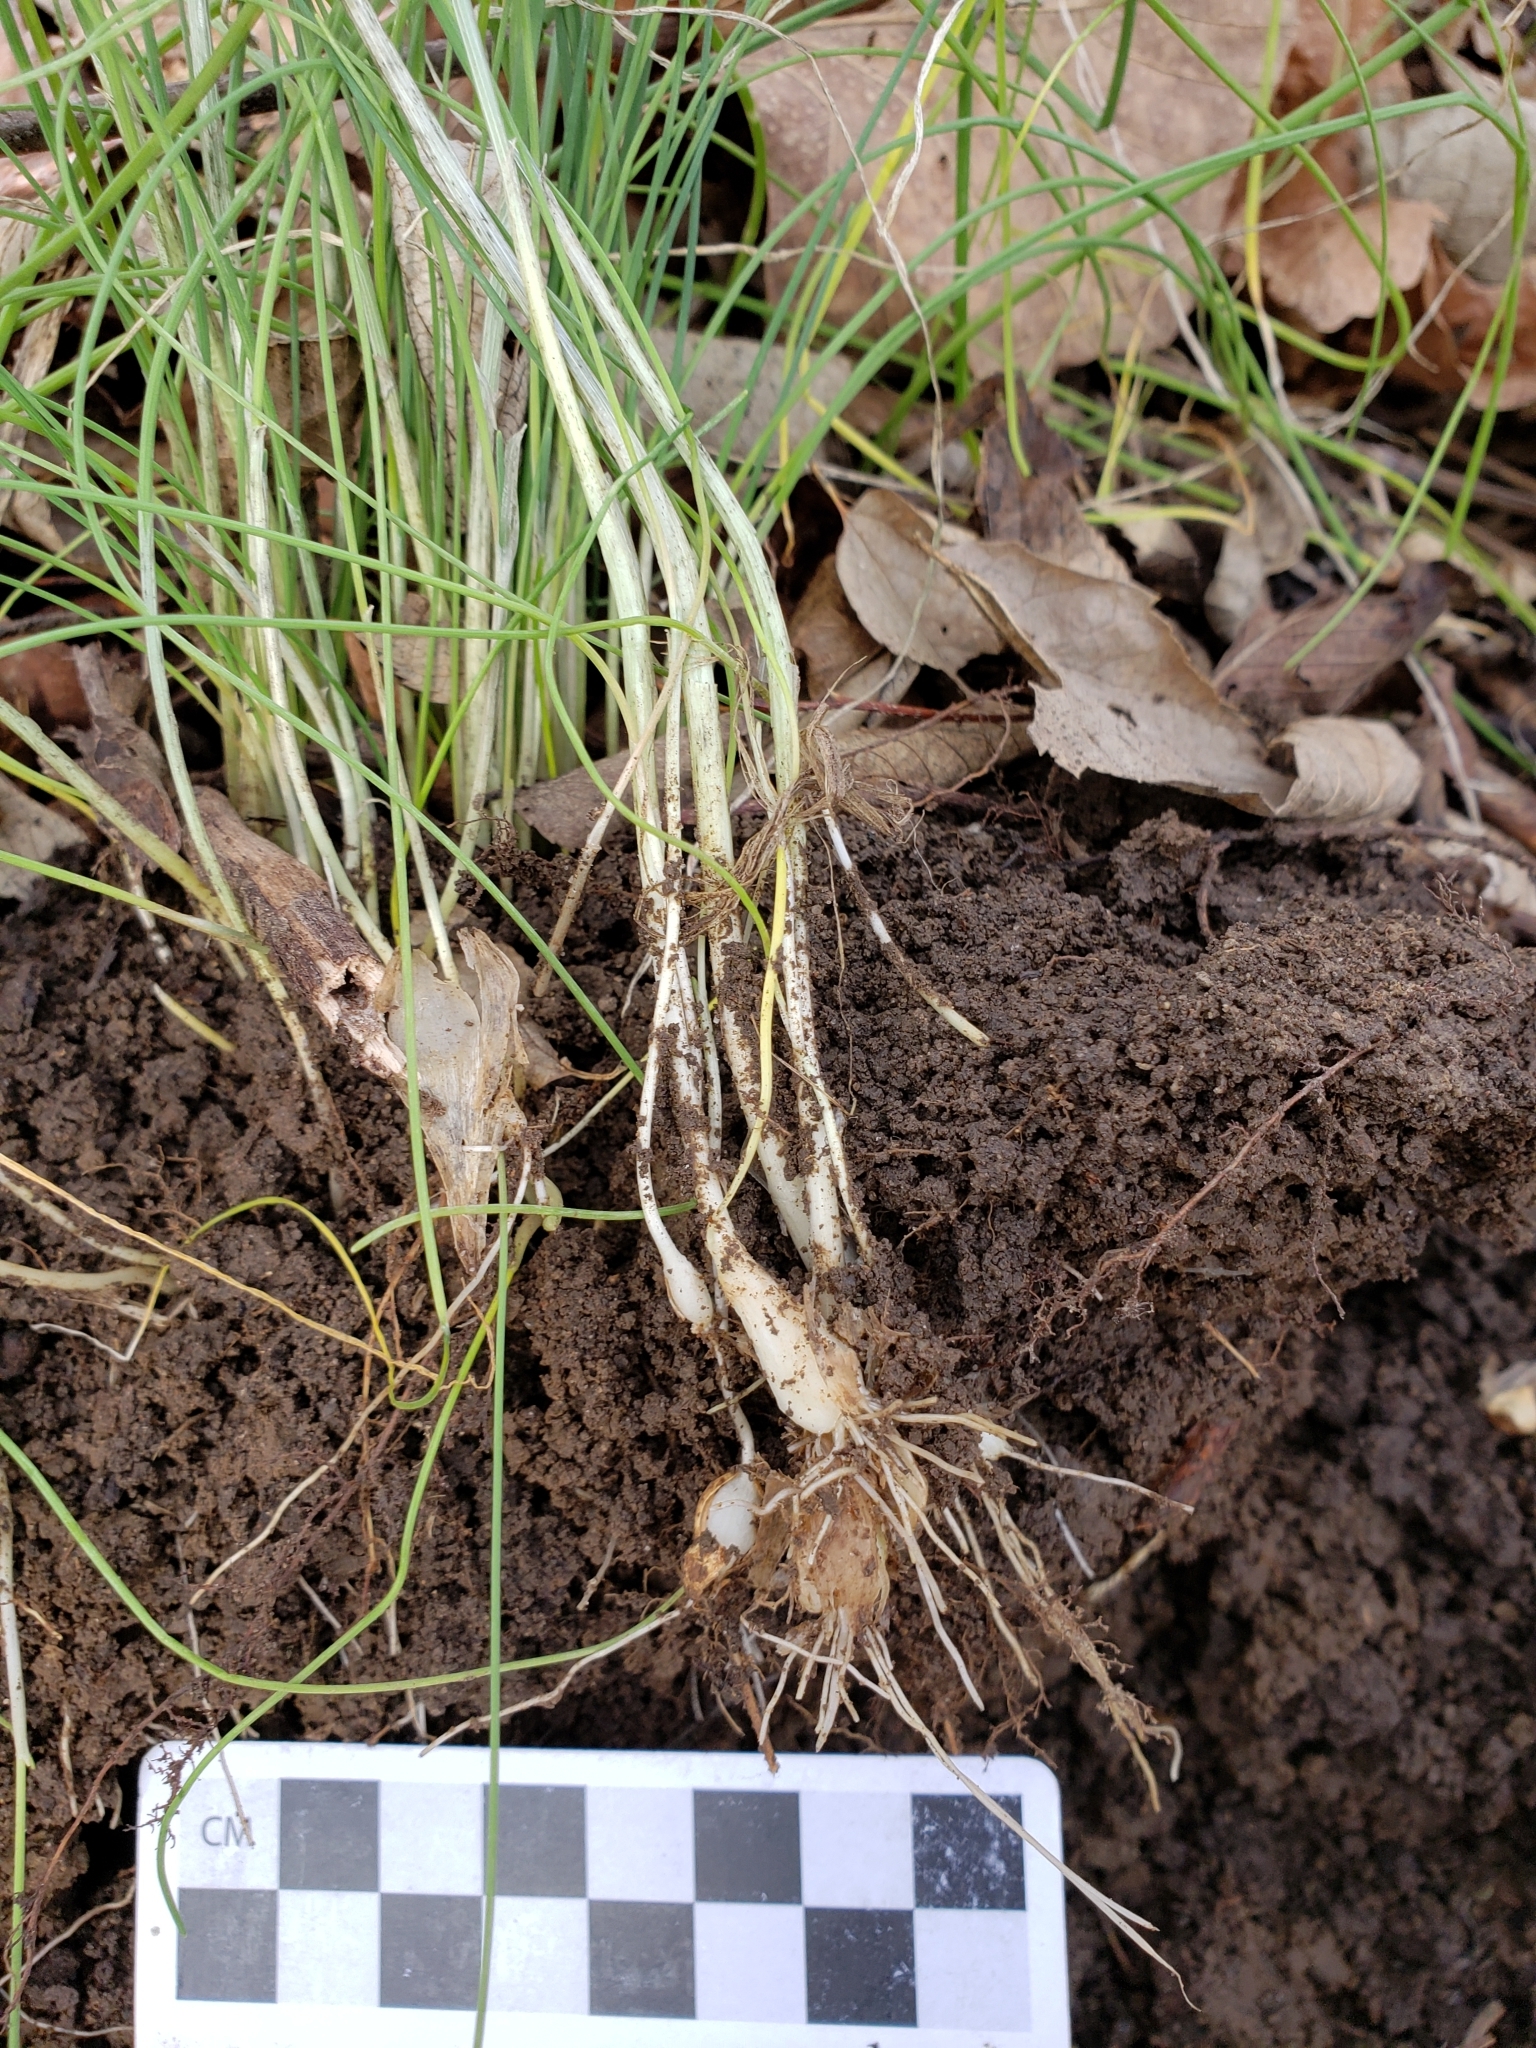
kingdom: Plantae
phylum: Tracheophyta
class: Liliopsida
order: Asparagales
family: Amaryllidaceae
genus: Allium
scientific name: Allium vineale
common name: Crow garlic
